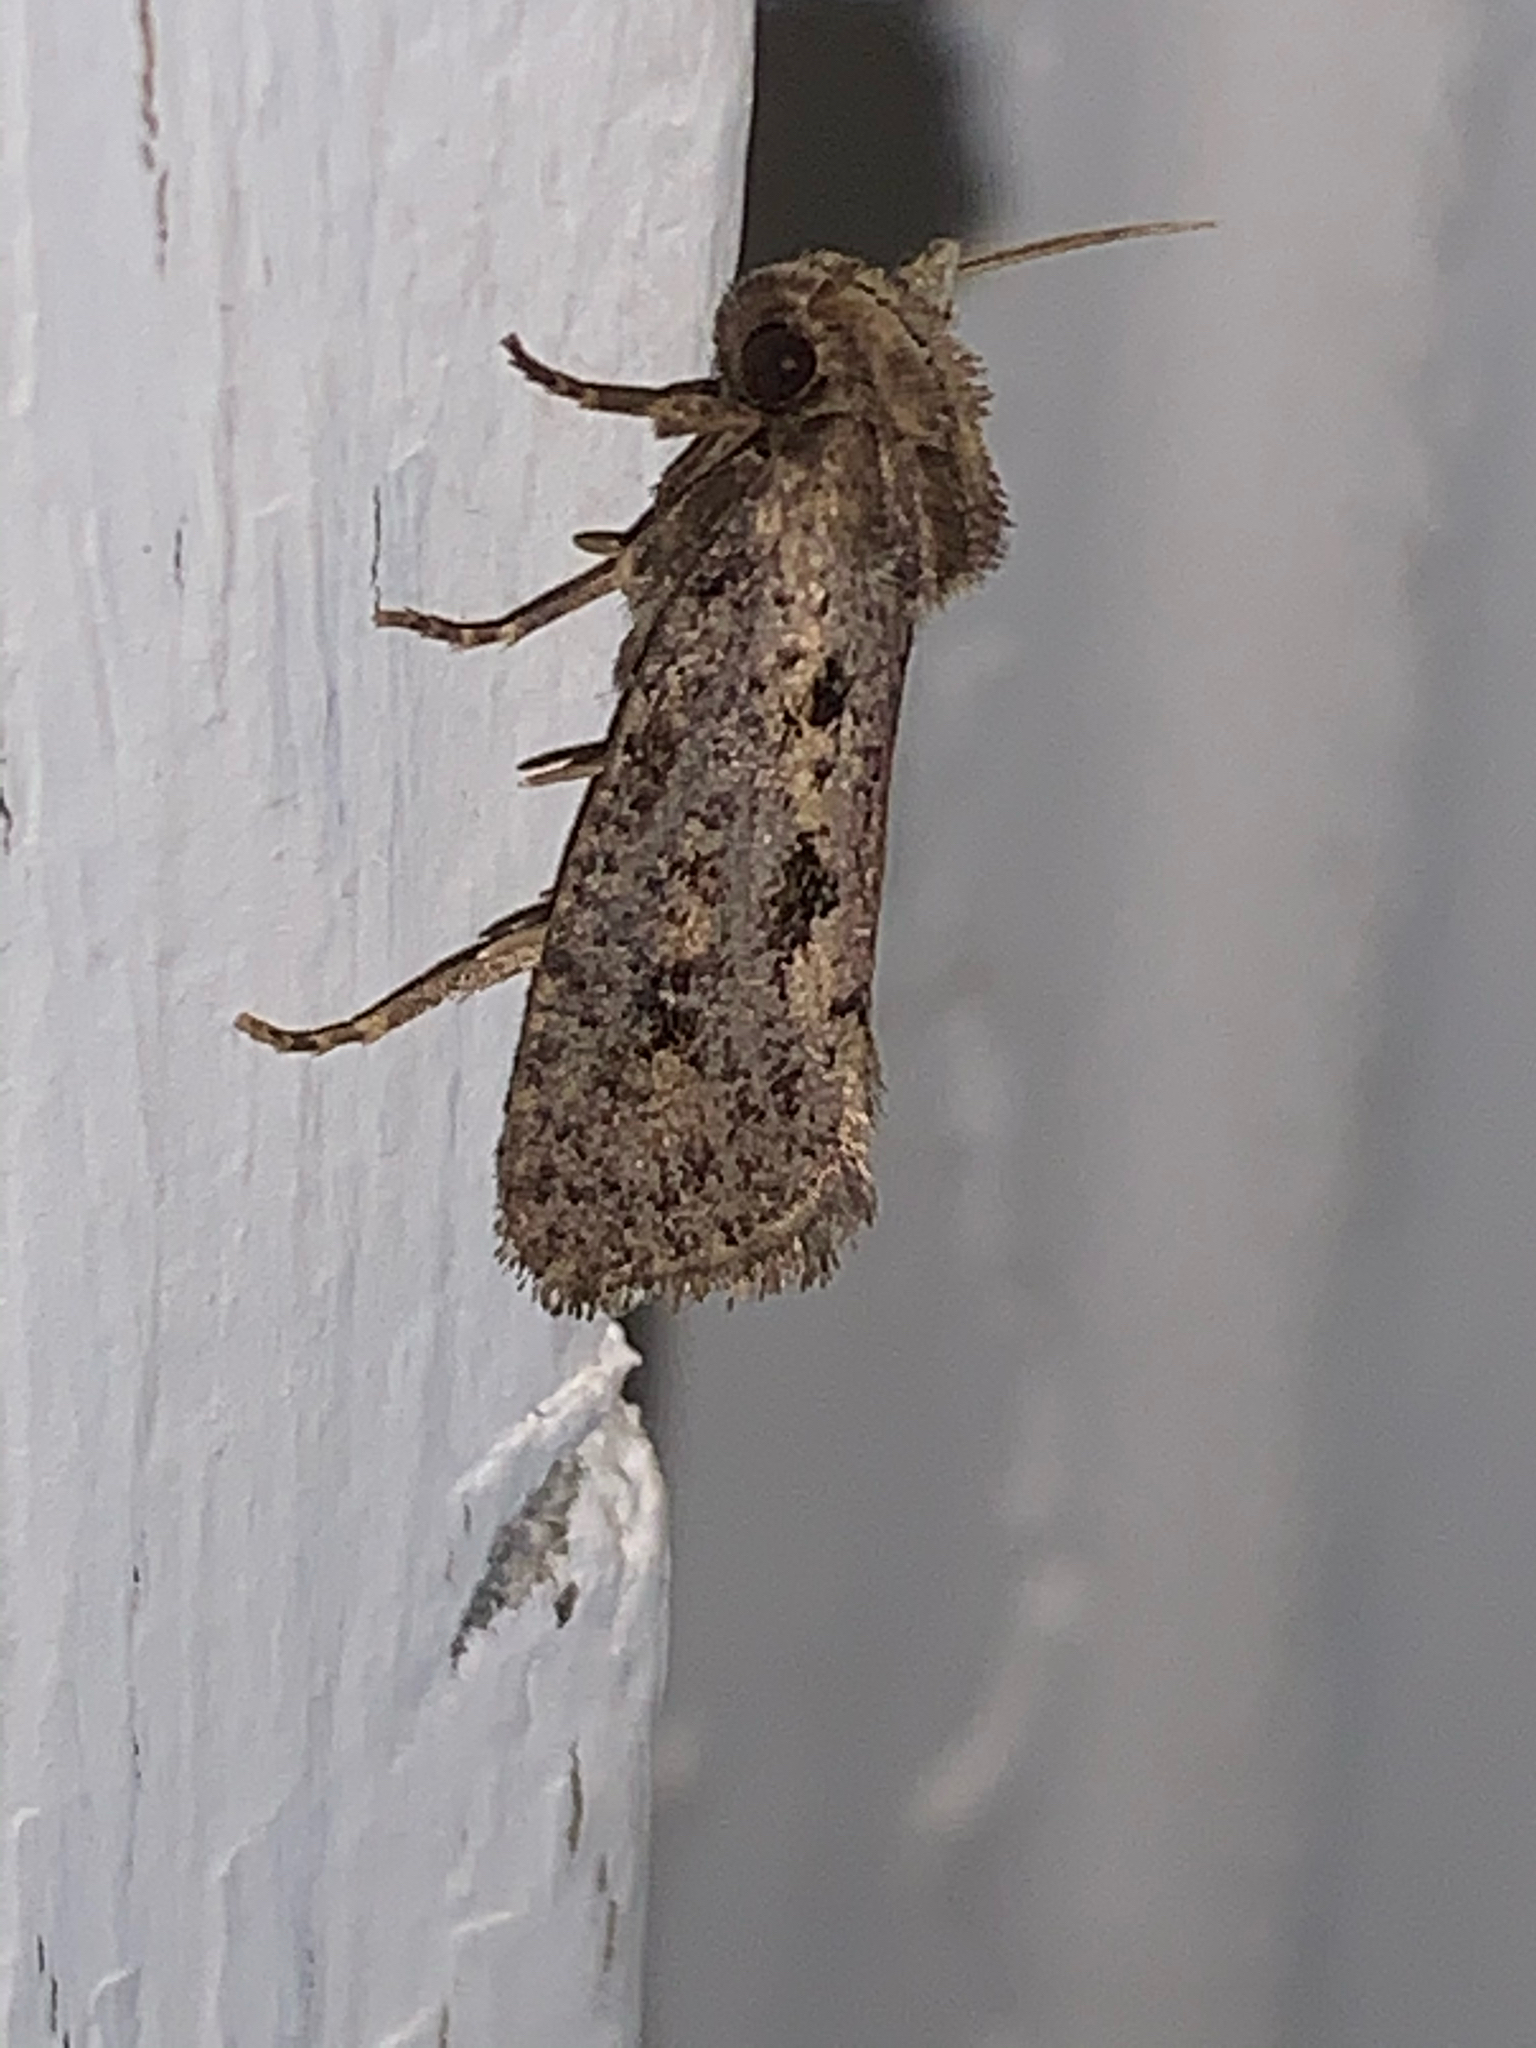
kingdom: Animalia
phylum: Arthropoda
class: Insecta
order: Lepidoptera
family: Tineidae
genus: Acrolophus
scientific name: Acrolophus popeanella
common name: Clemens' grass tubeworm moth
